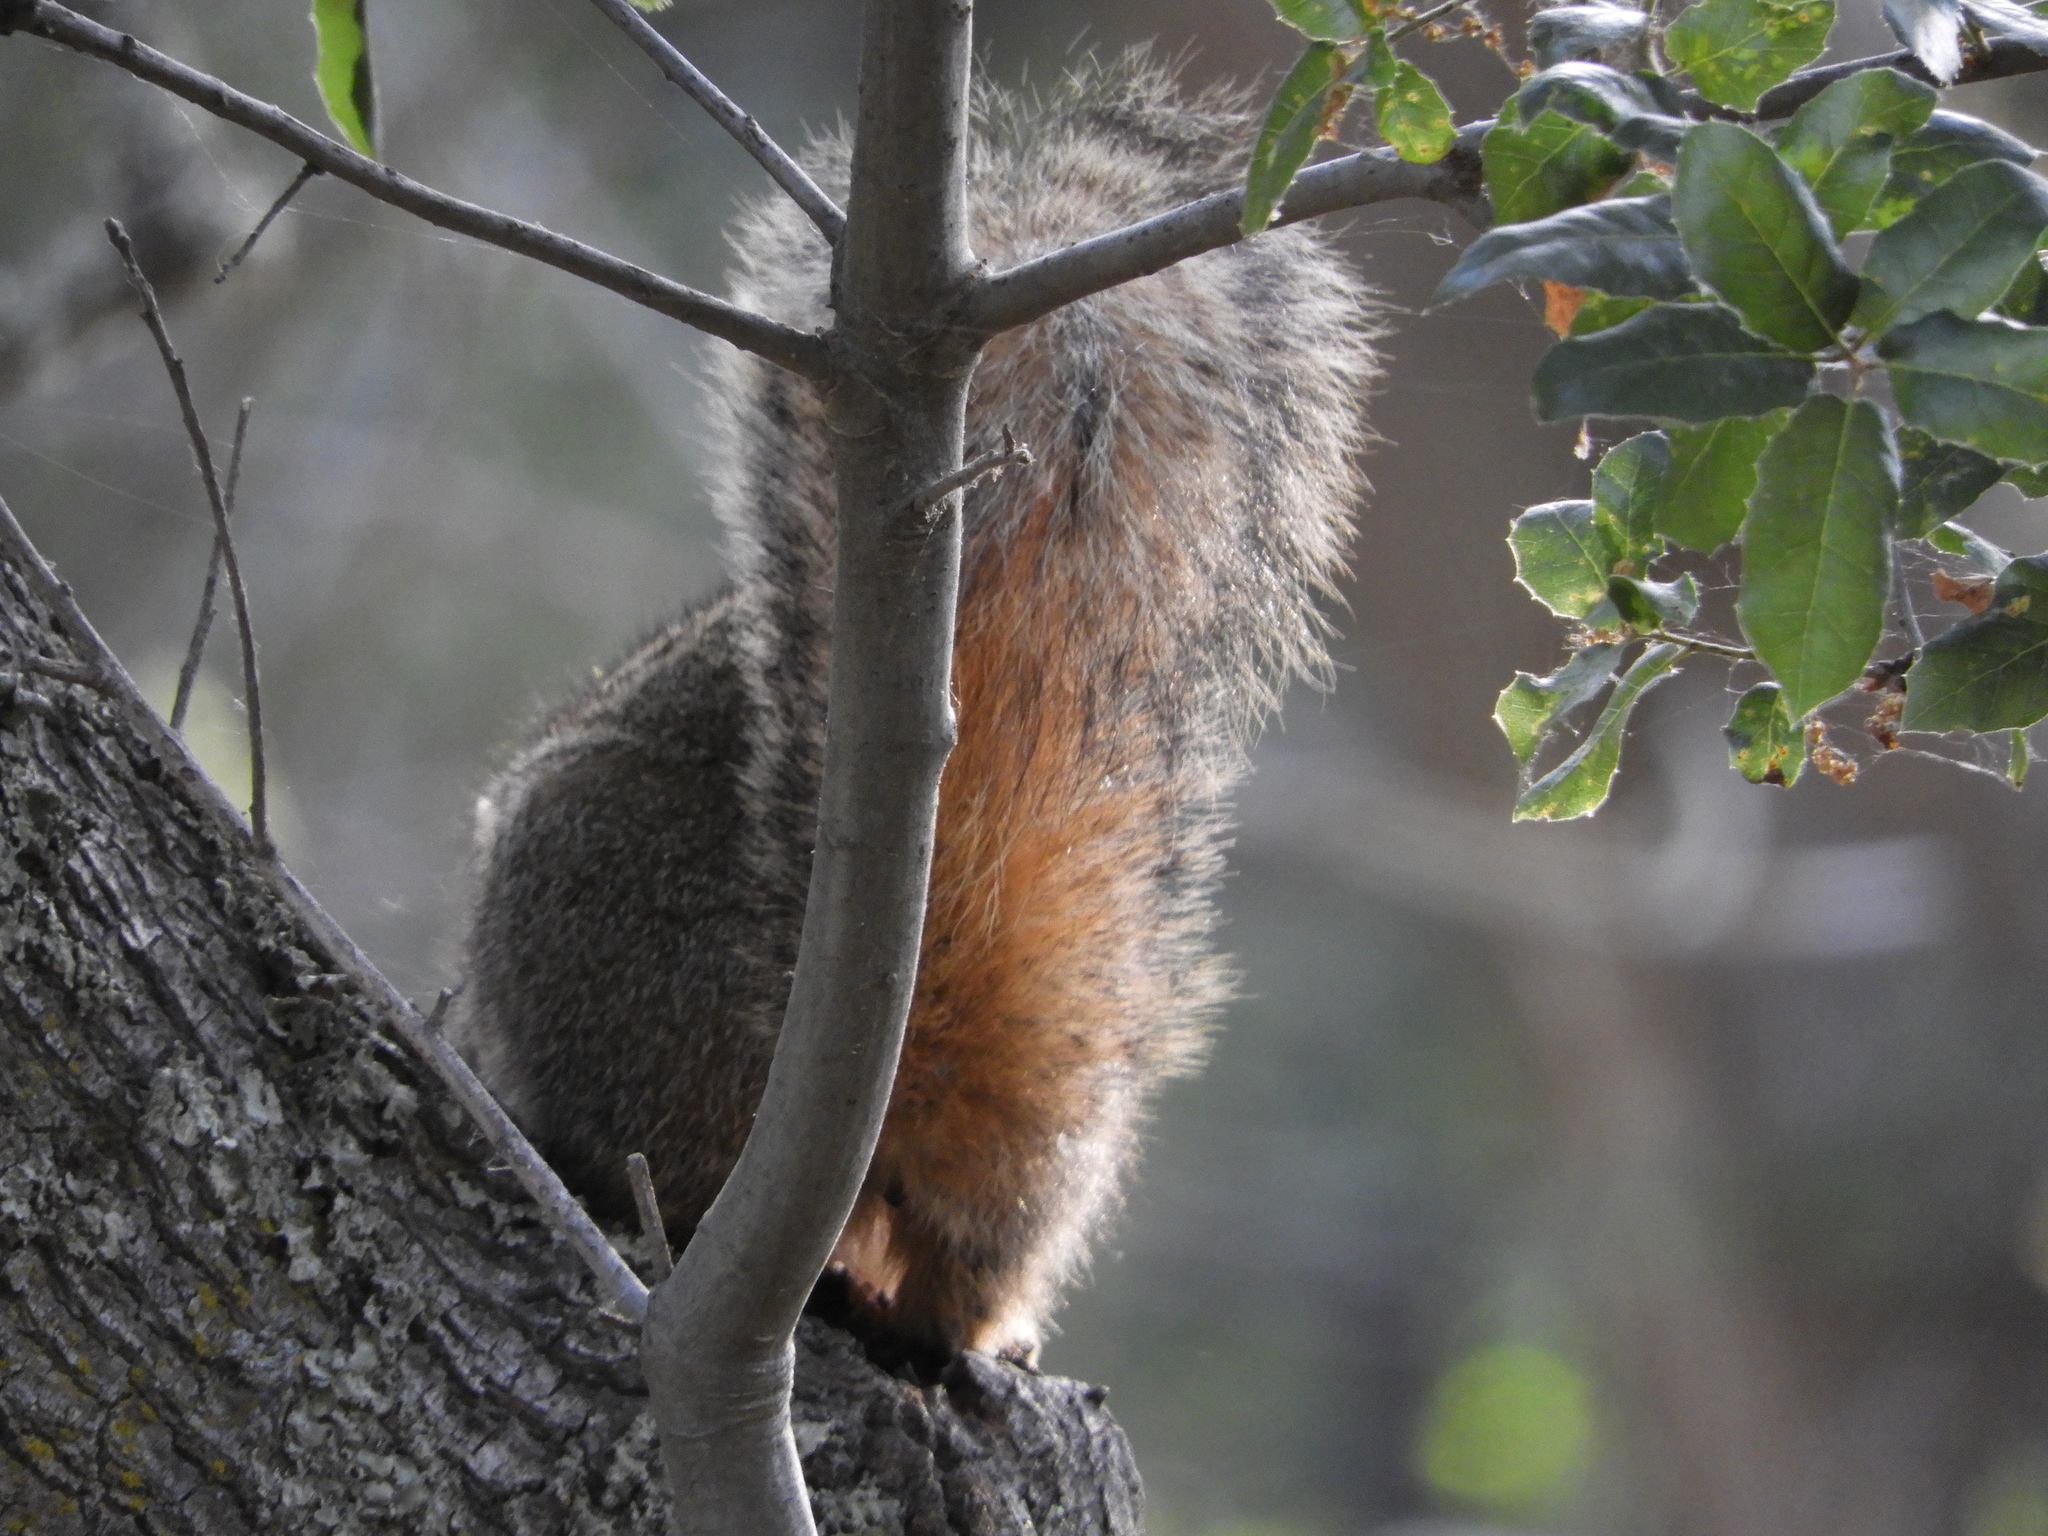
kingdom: Animalia
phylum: Chordata
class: Mammalia
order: Rodentia
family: Sciuridae
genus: Sciurus
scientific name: Sciurus niger
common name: Fox squirrel
